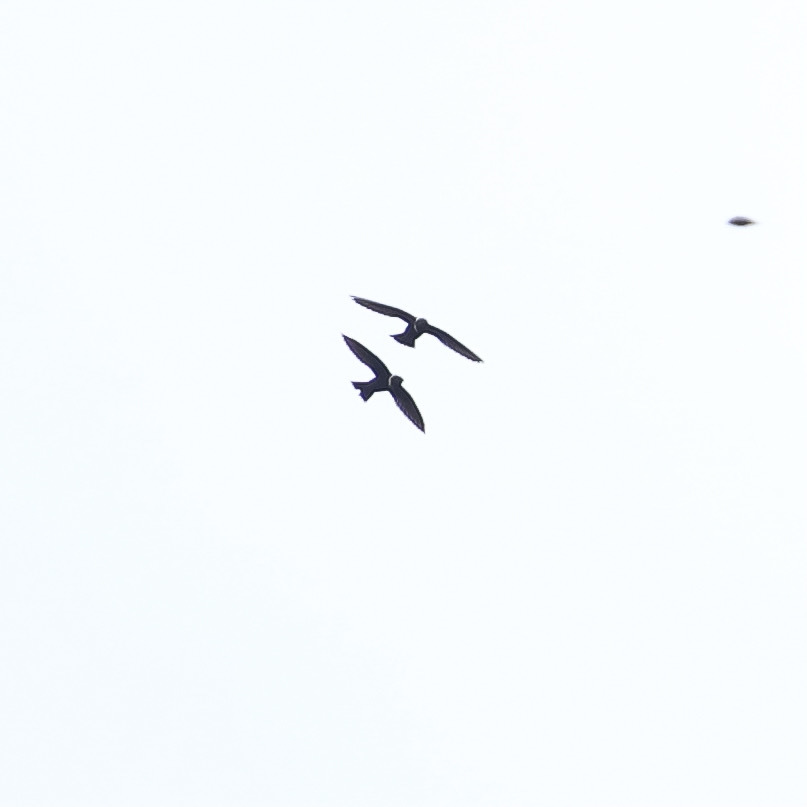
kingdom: Animalia
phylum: Chordata
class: Aves
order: Apodiformes
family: Apodidae
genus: Streptoprocne
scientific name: Streptoprocne zonaris
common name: White-collared swift
